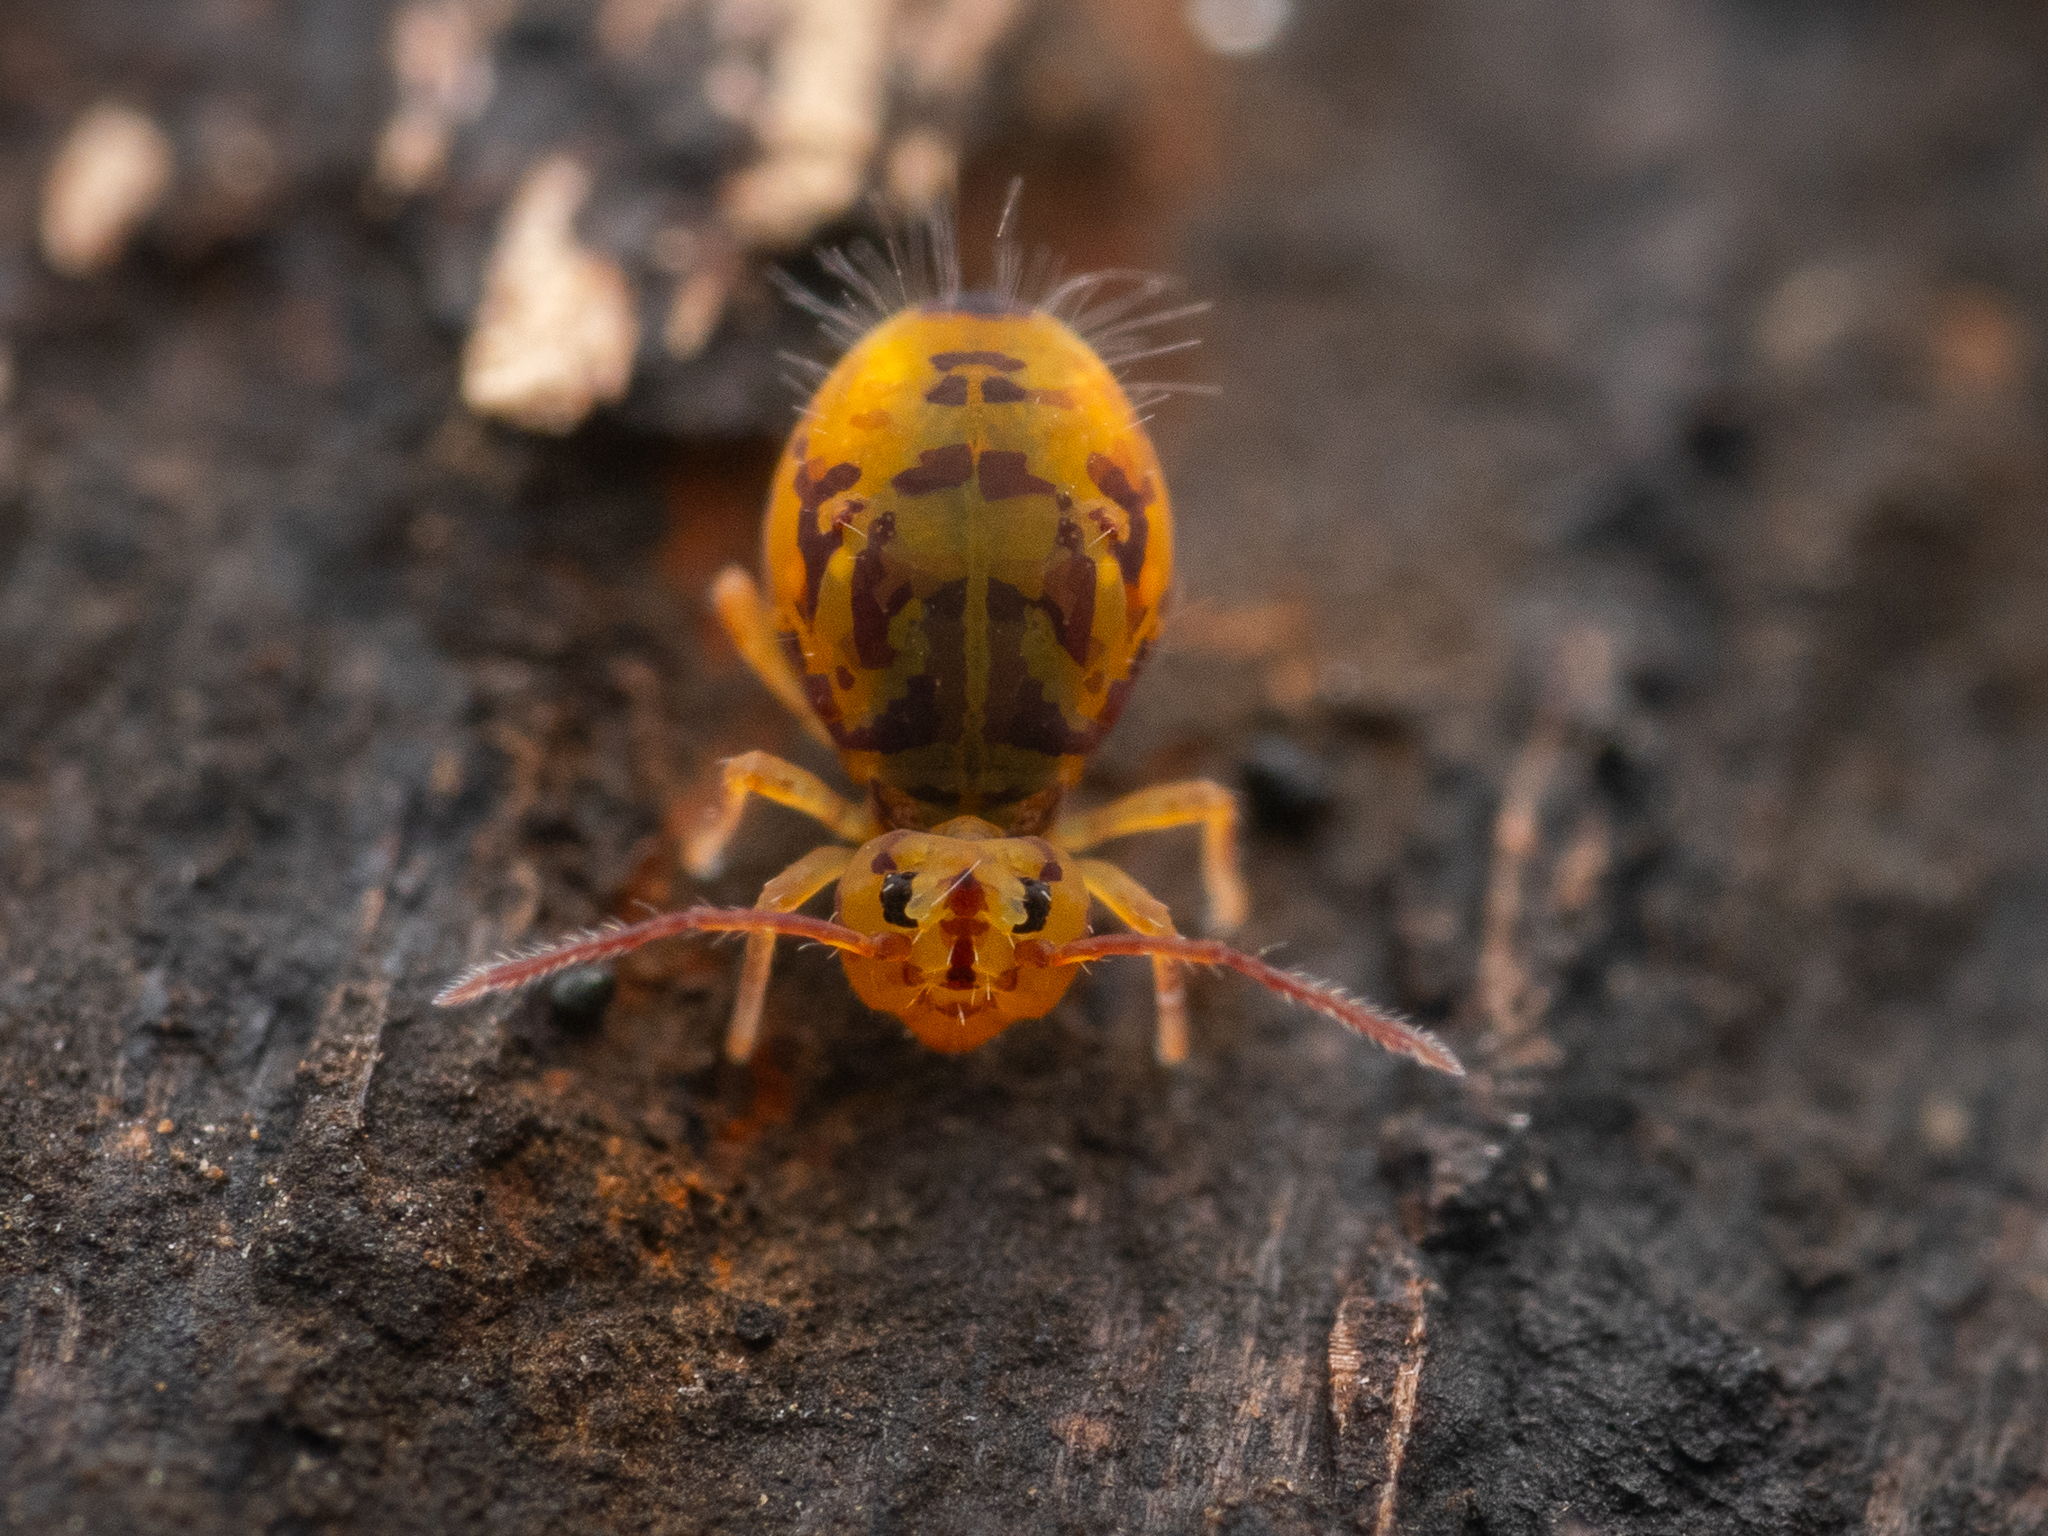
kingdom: Animalia
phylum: Arthropoda
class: Collembola
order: Symphypleona
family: Dicyrtomidae
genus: Dicyrtomina
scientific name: Dicyrtomina ornata
